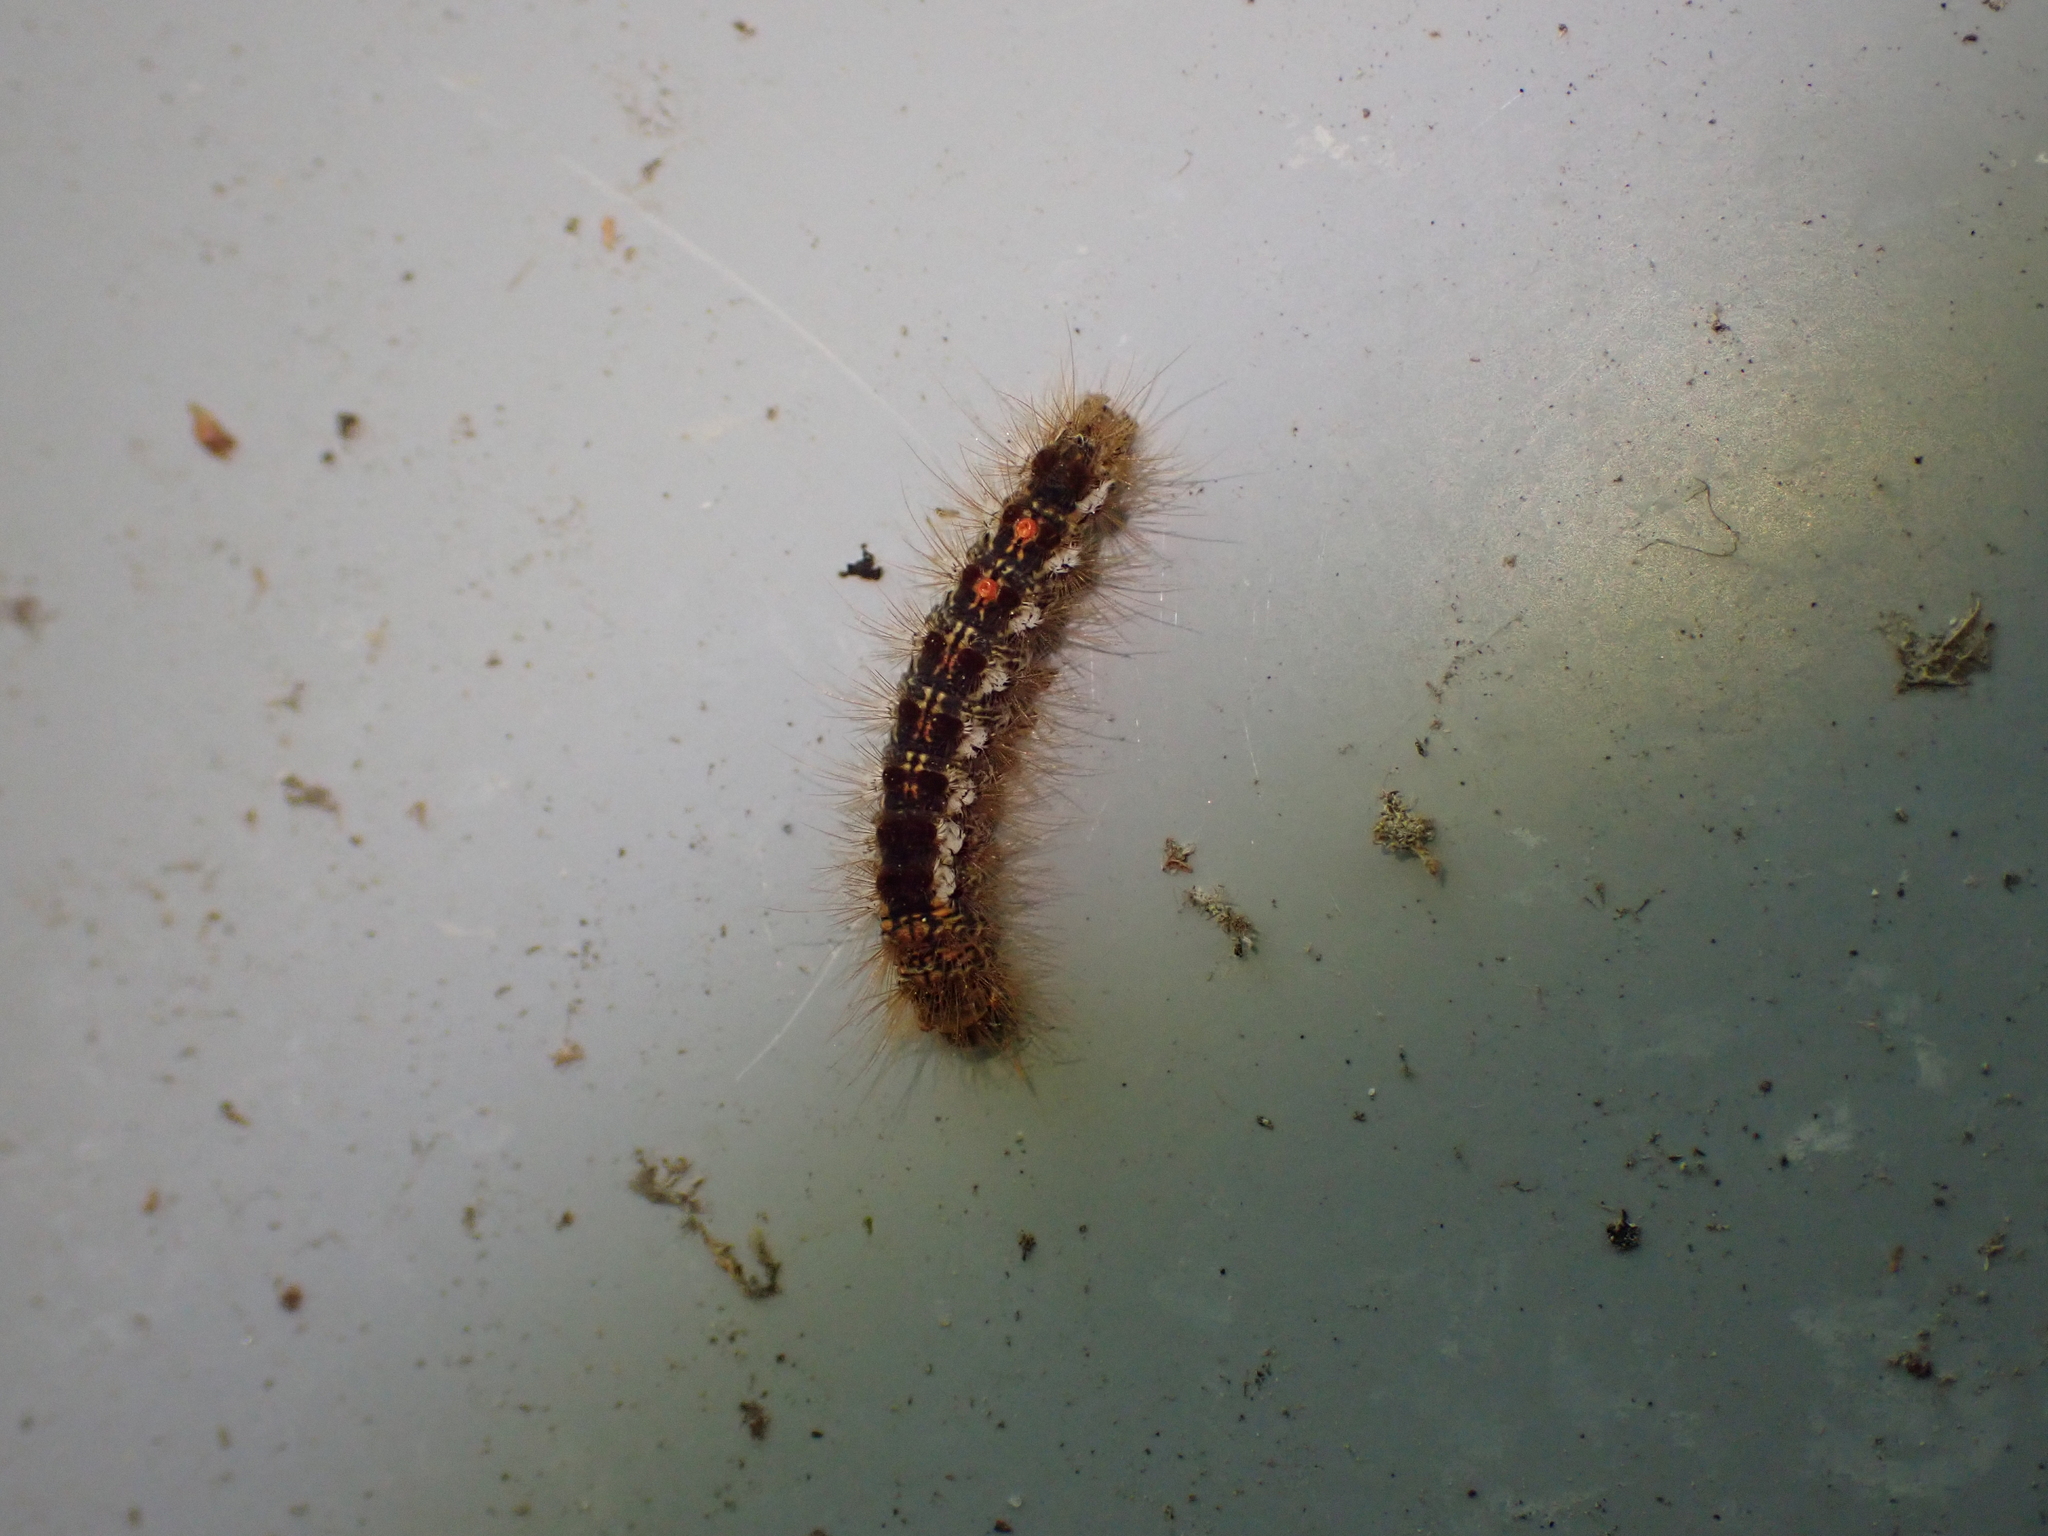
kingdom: Animalia
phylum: Arthropoda
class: Insecta
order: Lepidoptera
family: Erebidae
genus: Euproctis
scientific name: Euproctis chrysorrhoea
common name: Brown-tail
